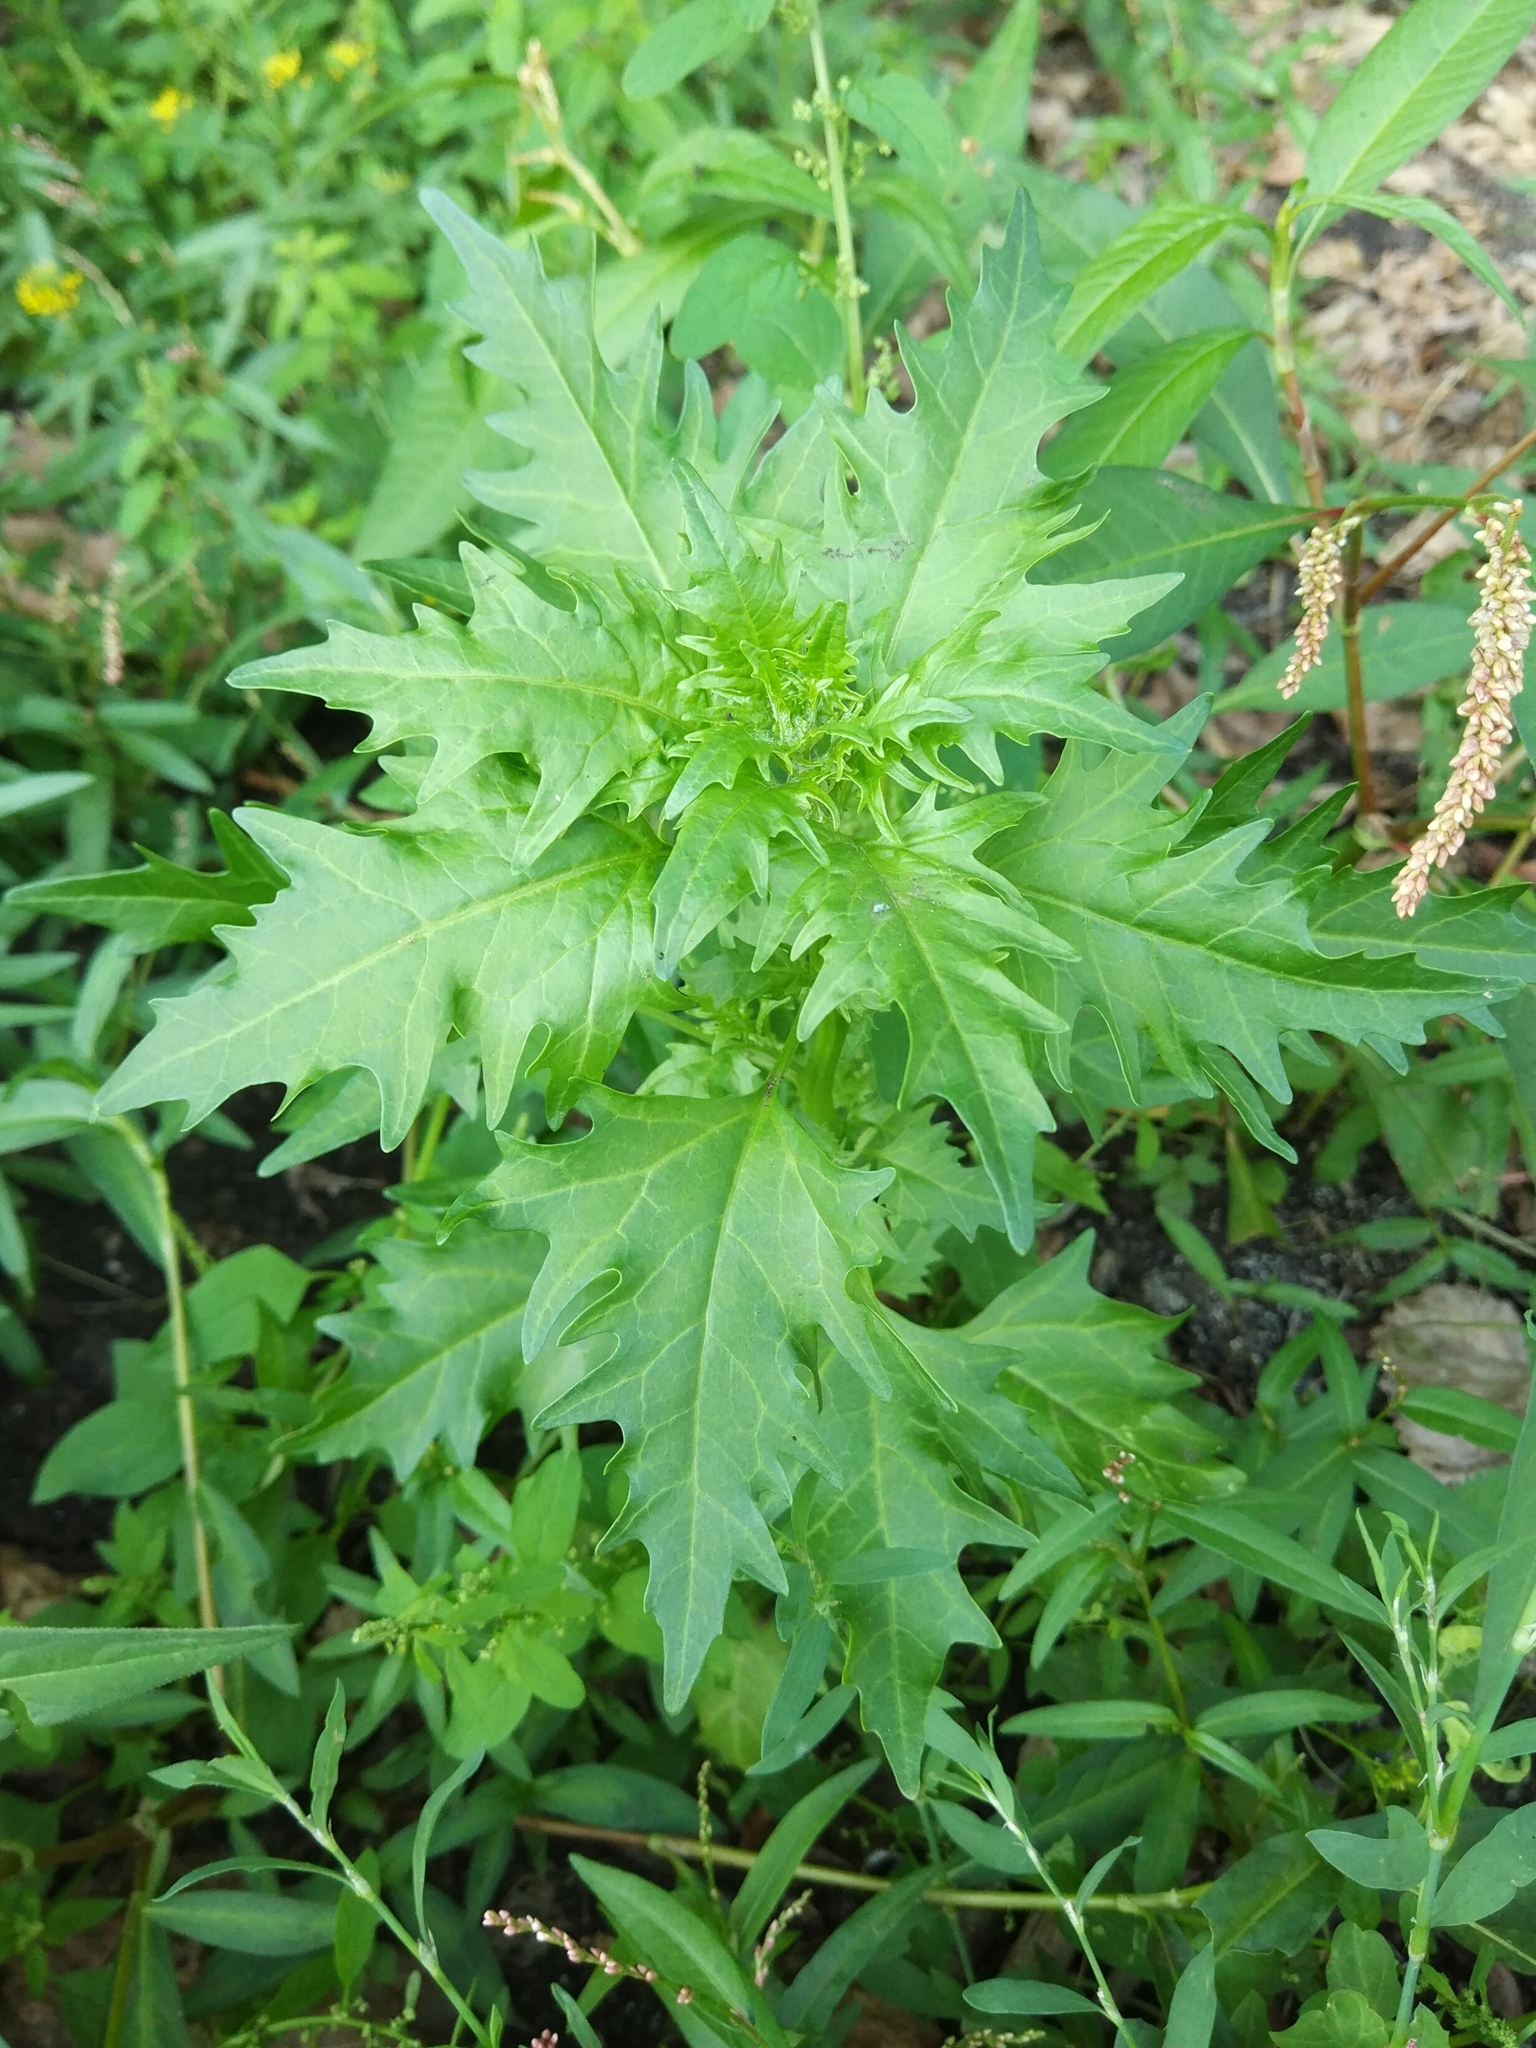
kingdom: Plantae
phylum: Tracheophyta
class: Magnoliopsida
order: Caryophyllales
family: Amaranthaceae
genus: Oxybasis
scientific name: Oxybasis rubra
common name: Red goosefoot
